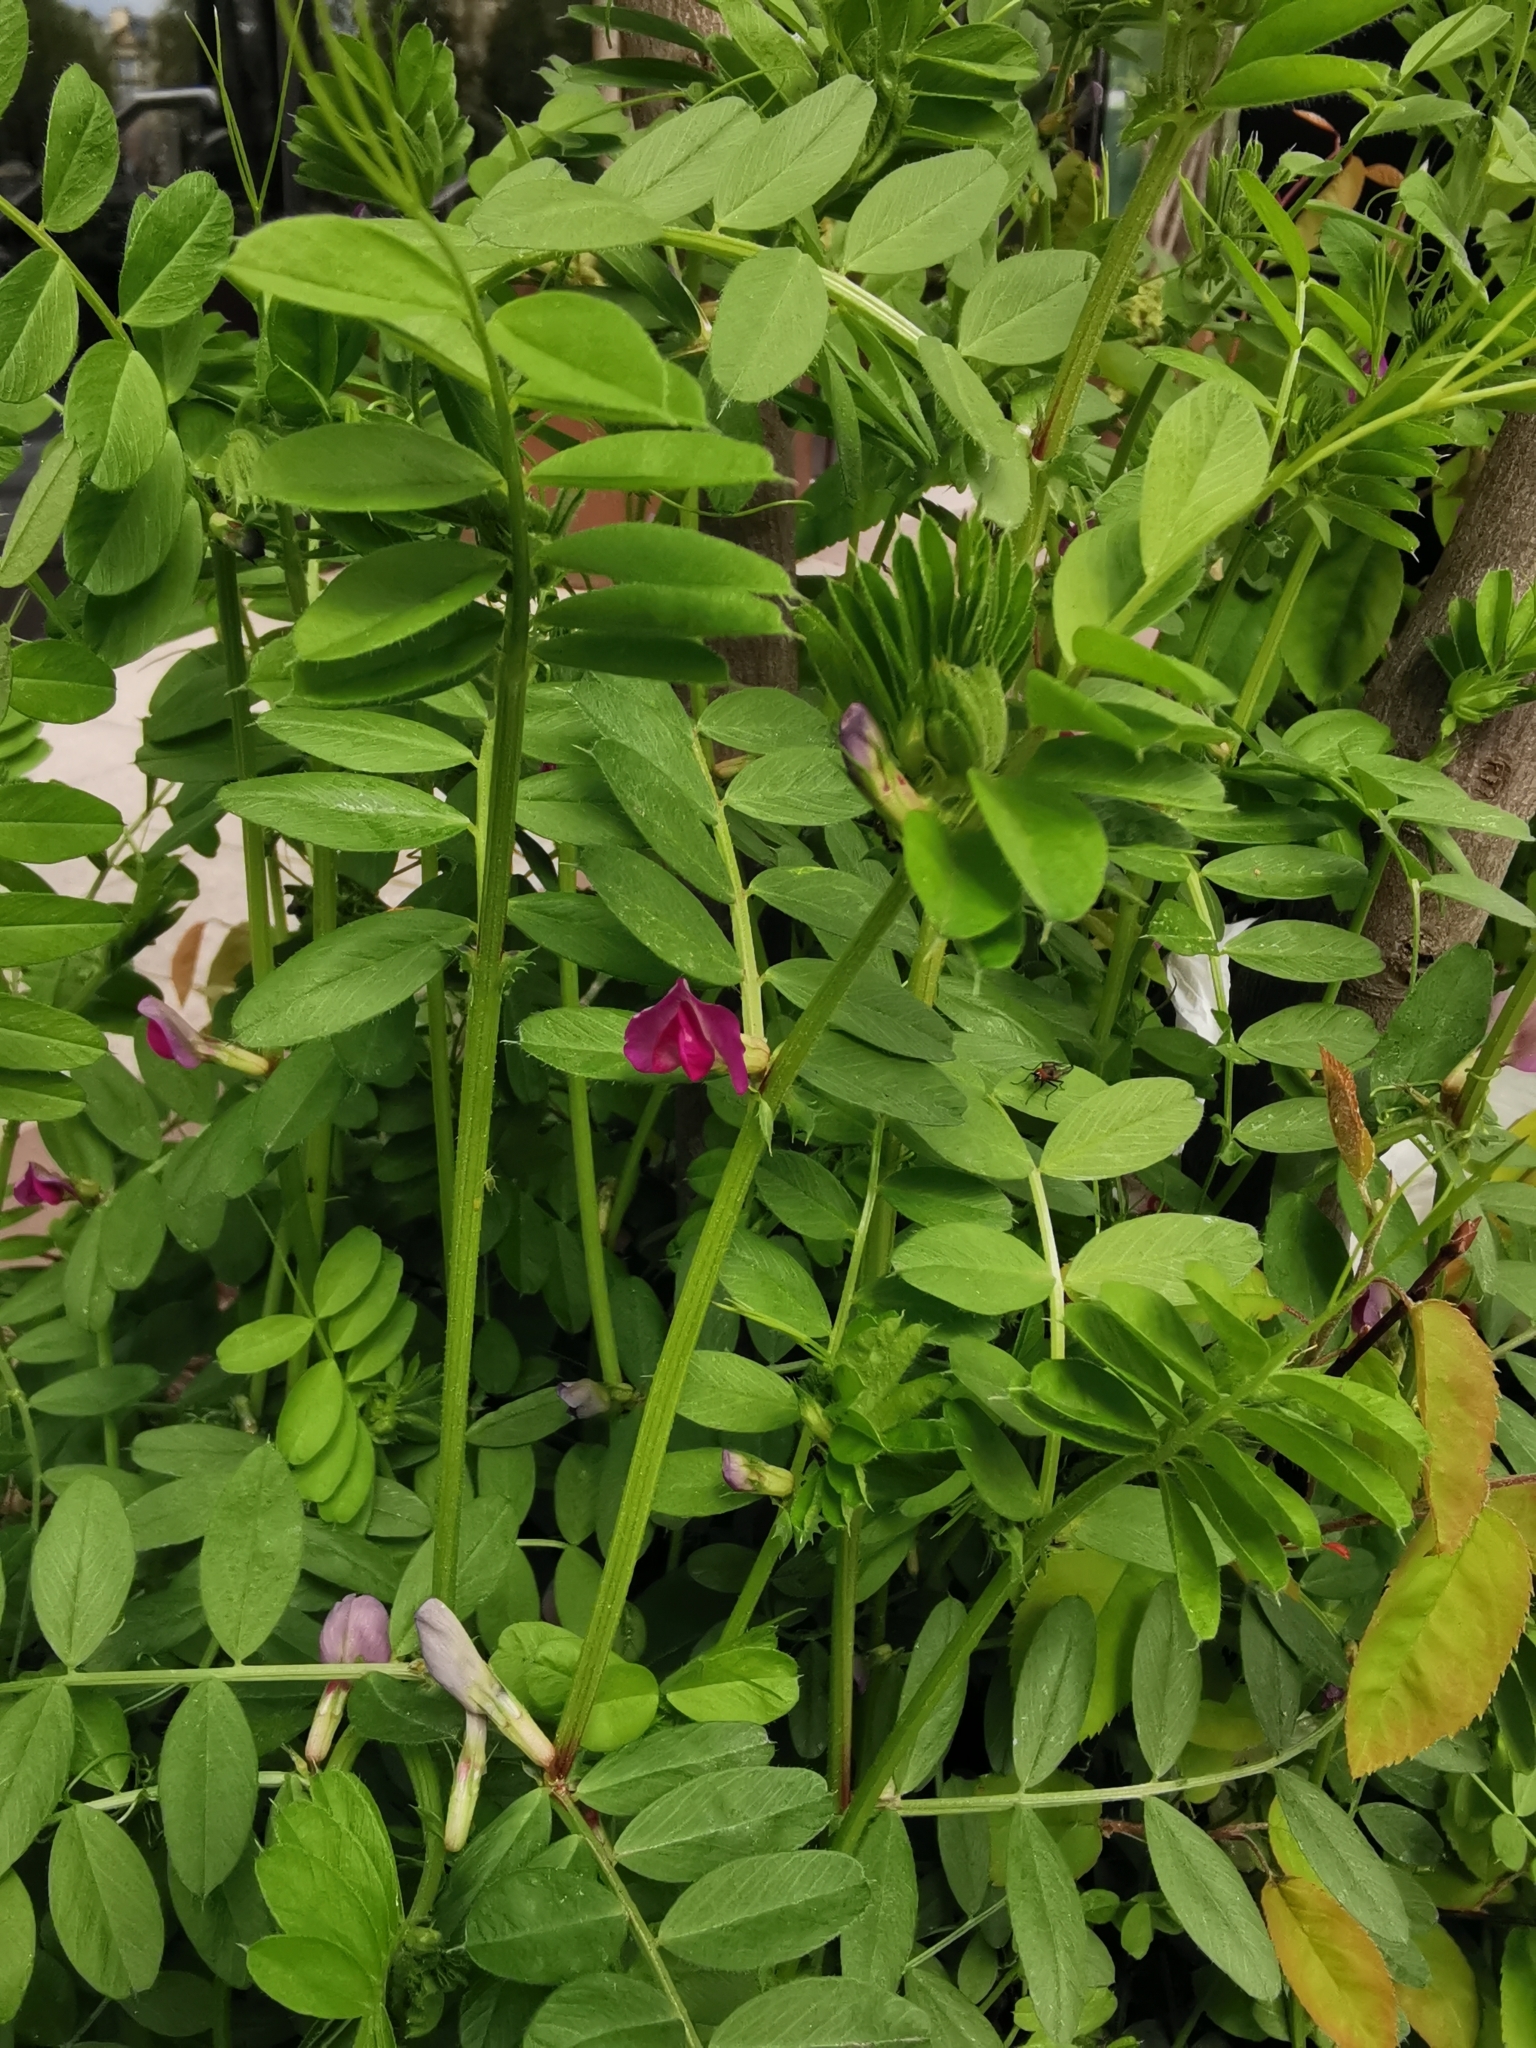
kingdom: Plantae
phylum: Tracheophyta
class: Magnoliopsida
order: Fabales
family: Fabaceae
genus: Vicia
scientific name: Vicia sativa
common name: Garden vetch
